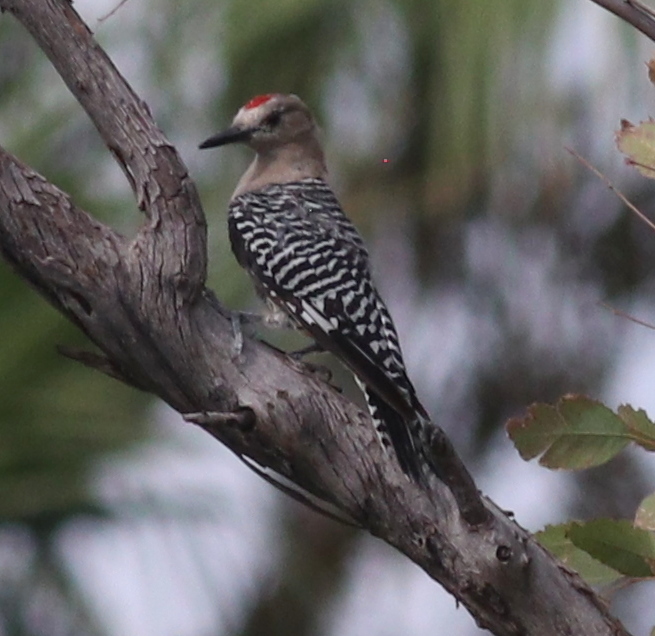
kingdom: Animalia
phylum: Chordata
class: Aves
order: Piciformes
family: Picidae
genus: Melanerpes
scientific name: Melanerpes uropygialis
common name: Gila woodpecker
